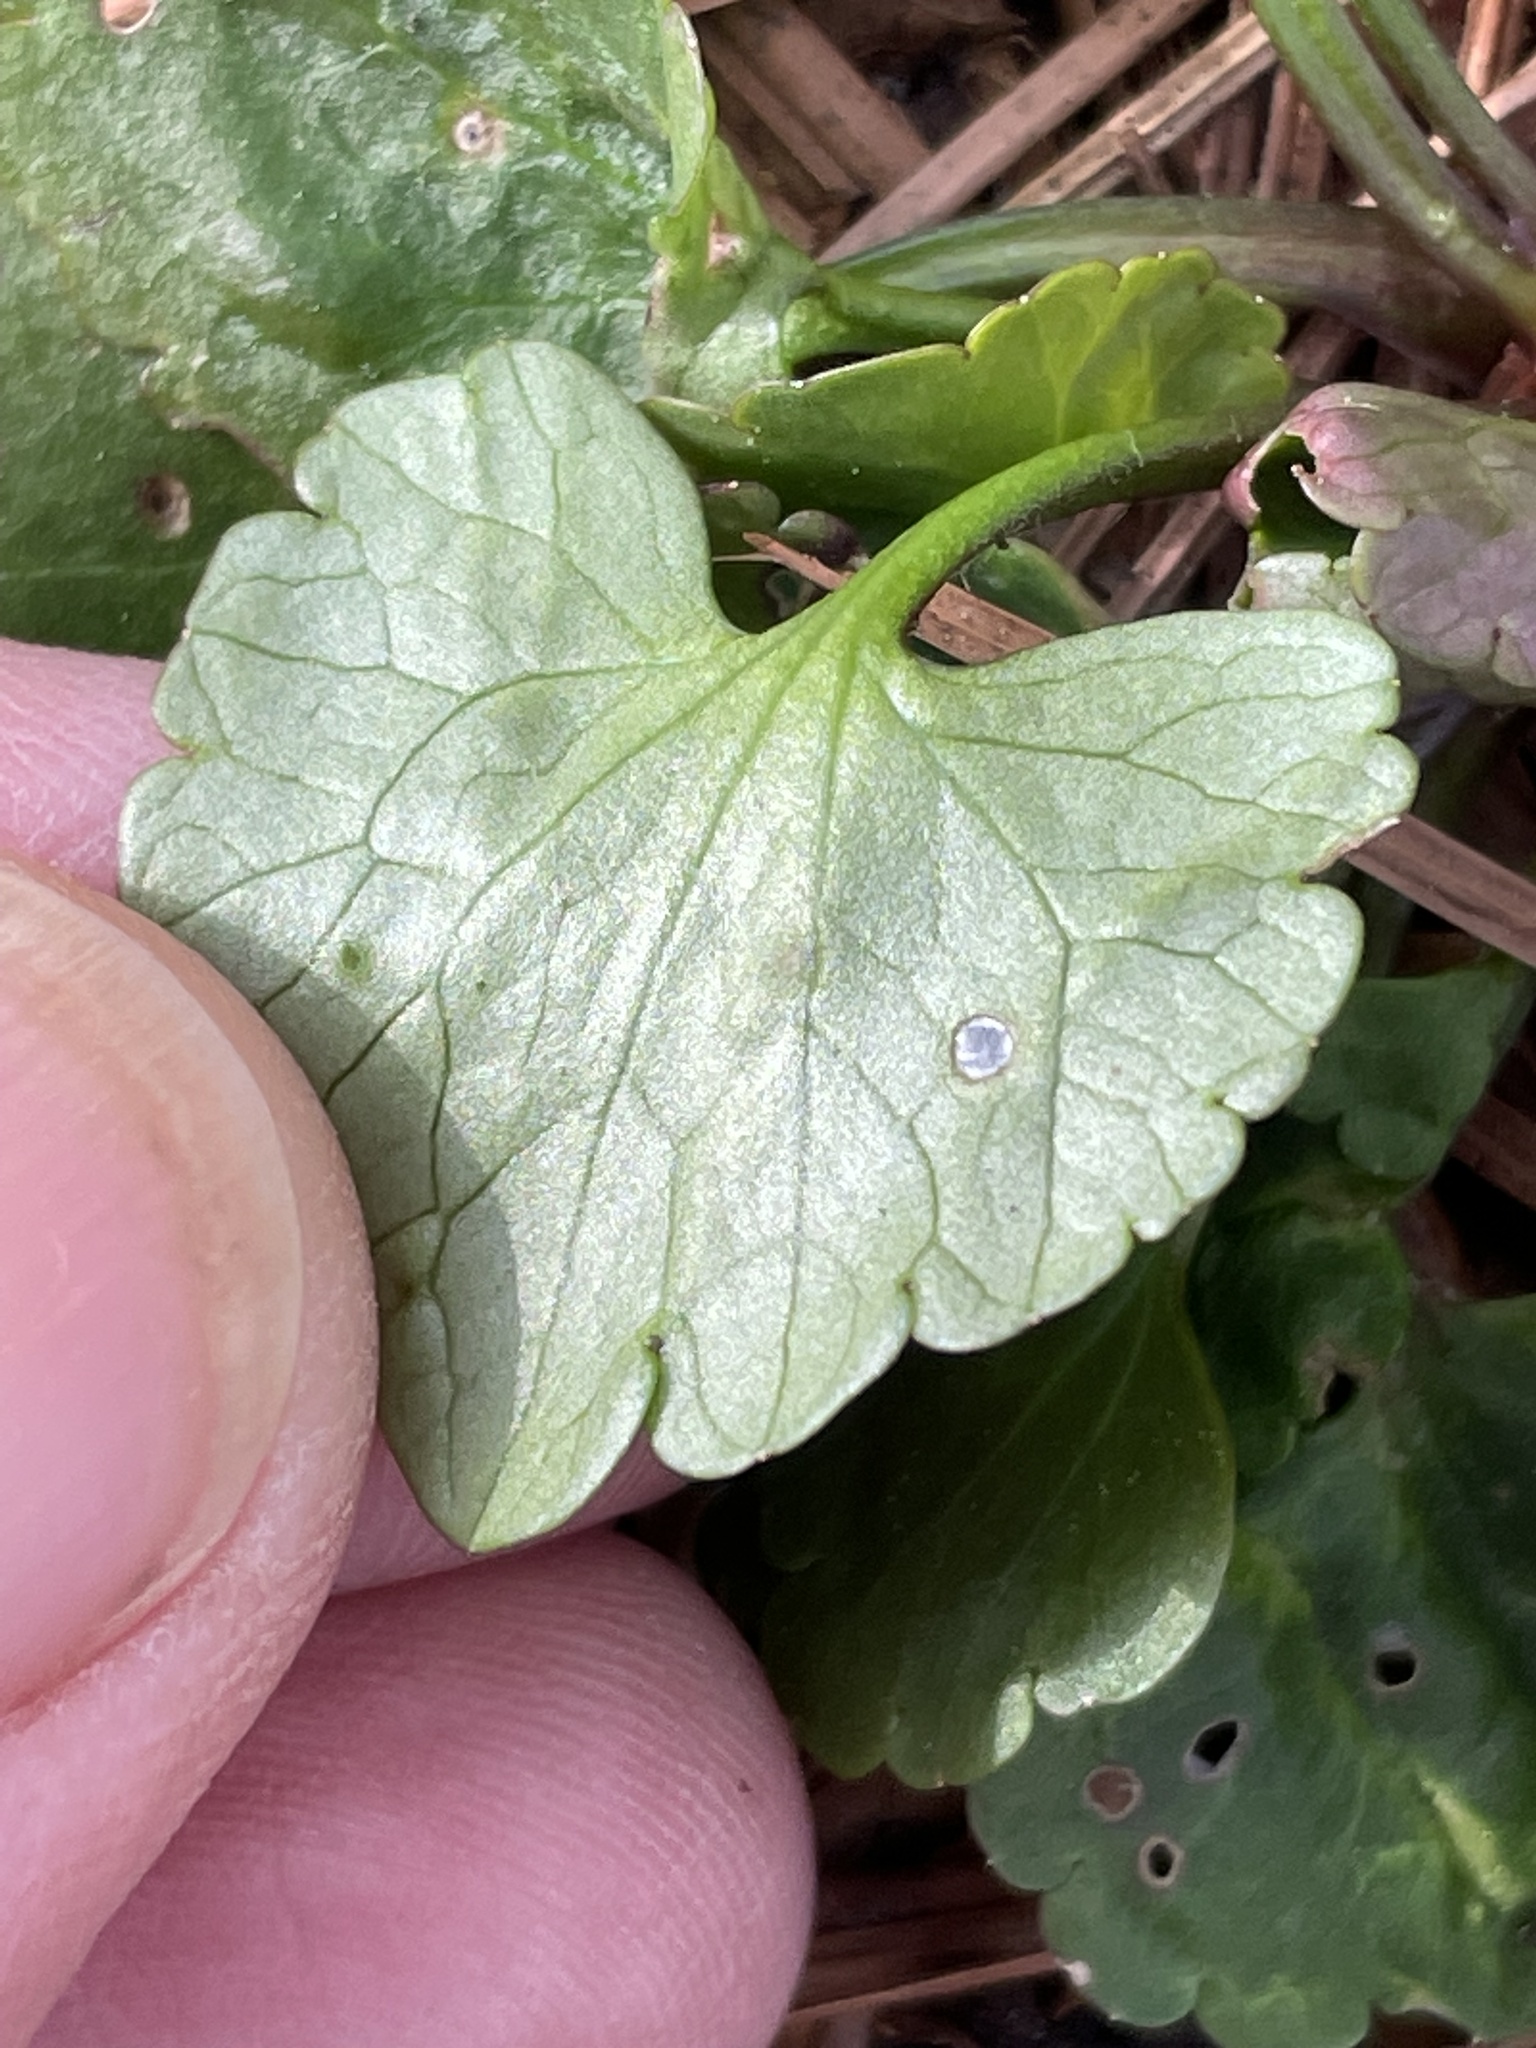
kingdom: Plantae
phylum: Tracheophyta
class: Magnoliopsida
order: Ranunculales
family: Ranunculaceae
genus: Ranunculus
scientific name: Ranunculus abortivus
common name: Early wood buttercup
